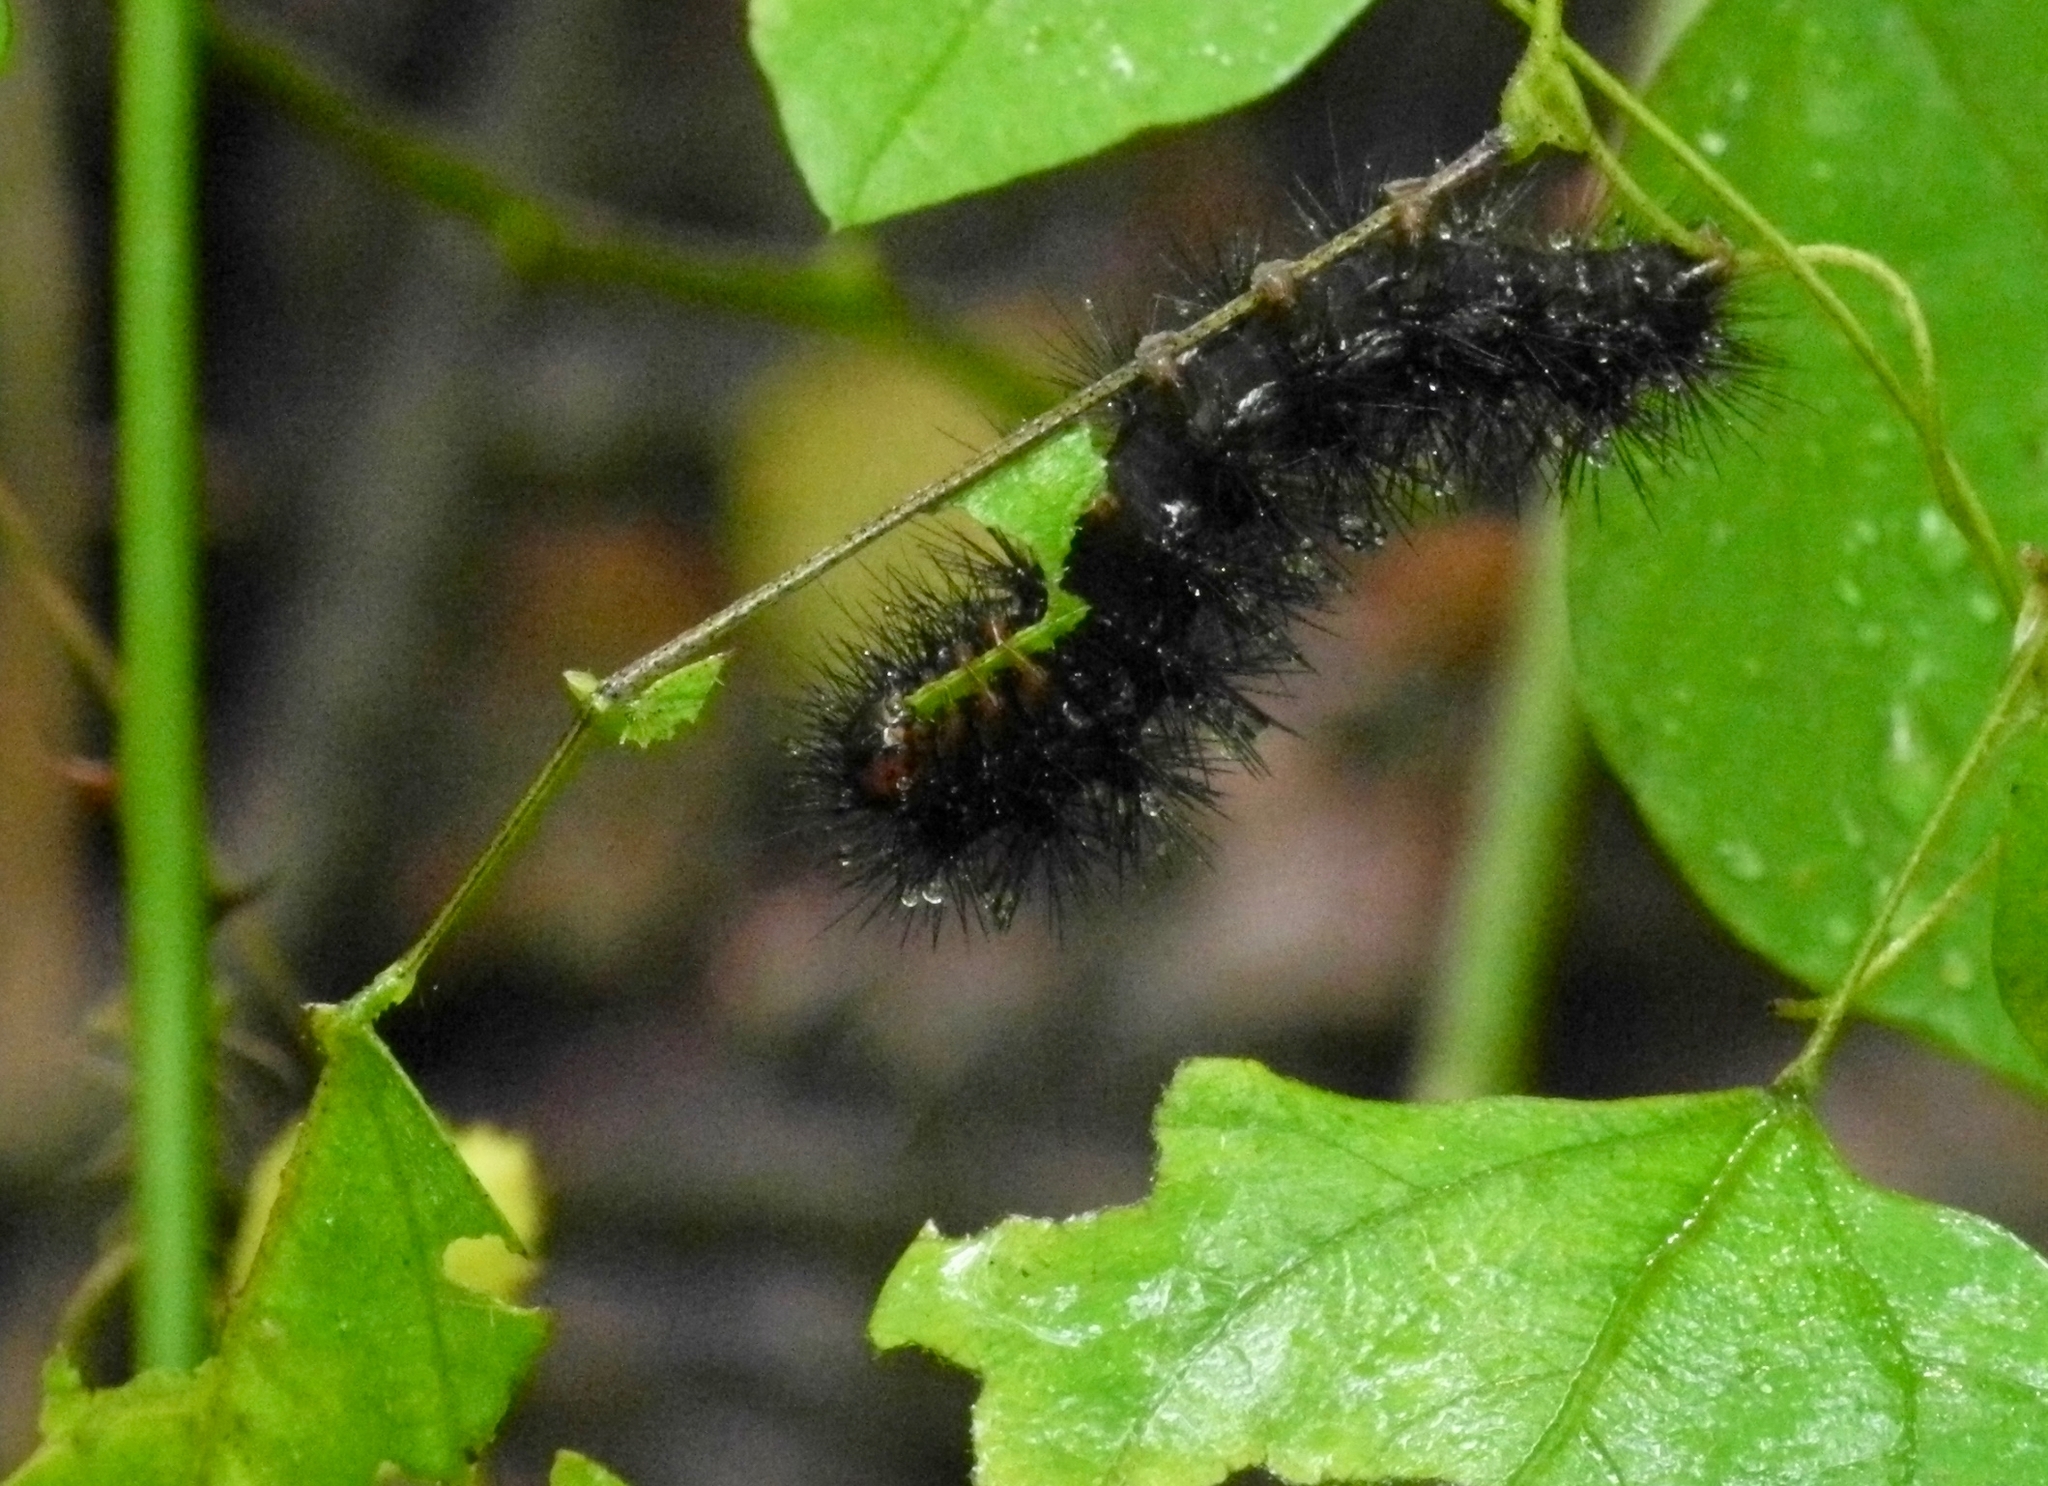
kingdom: Animalia
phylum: Arthropoda
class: Insecta
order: Lepidoptera
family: Erebidae
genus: Hypercompe
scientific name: Hypercompe scribonia
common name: Giant leopard moth
